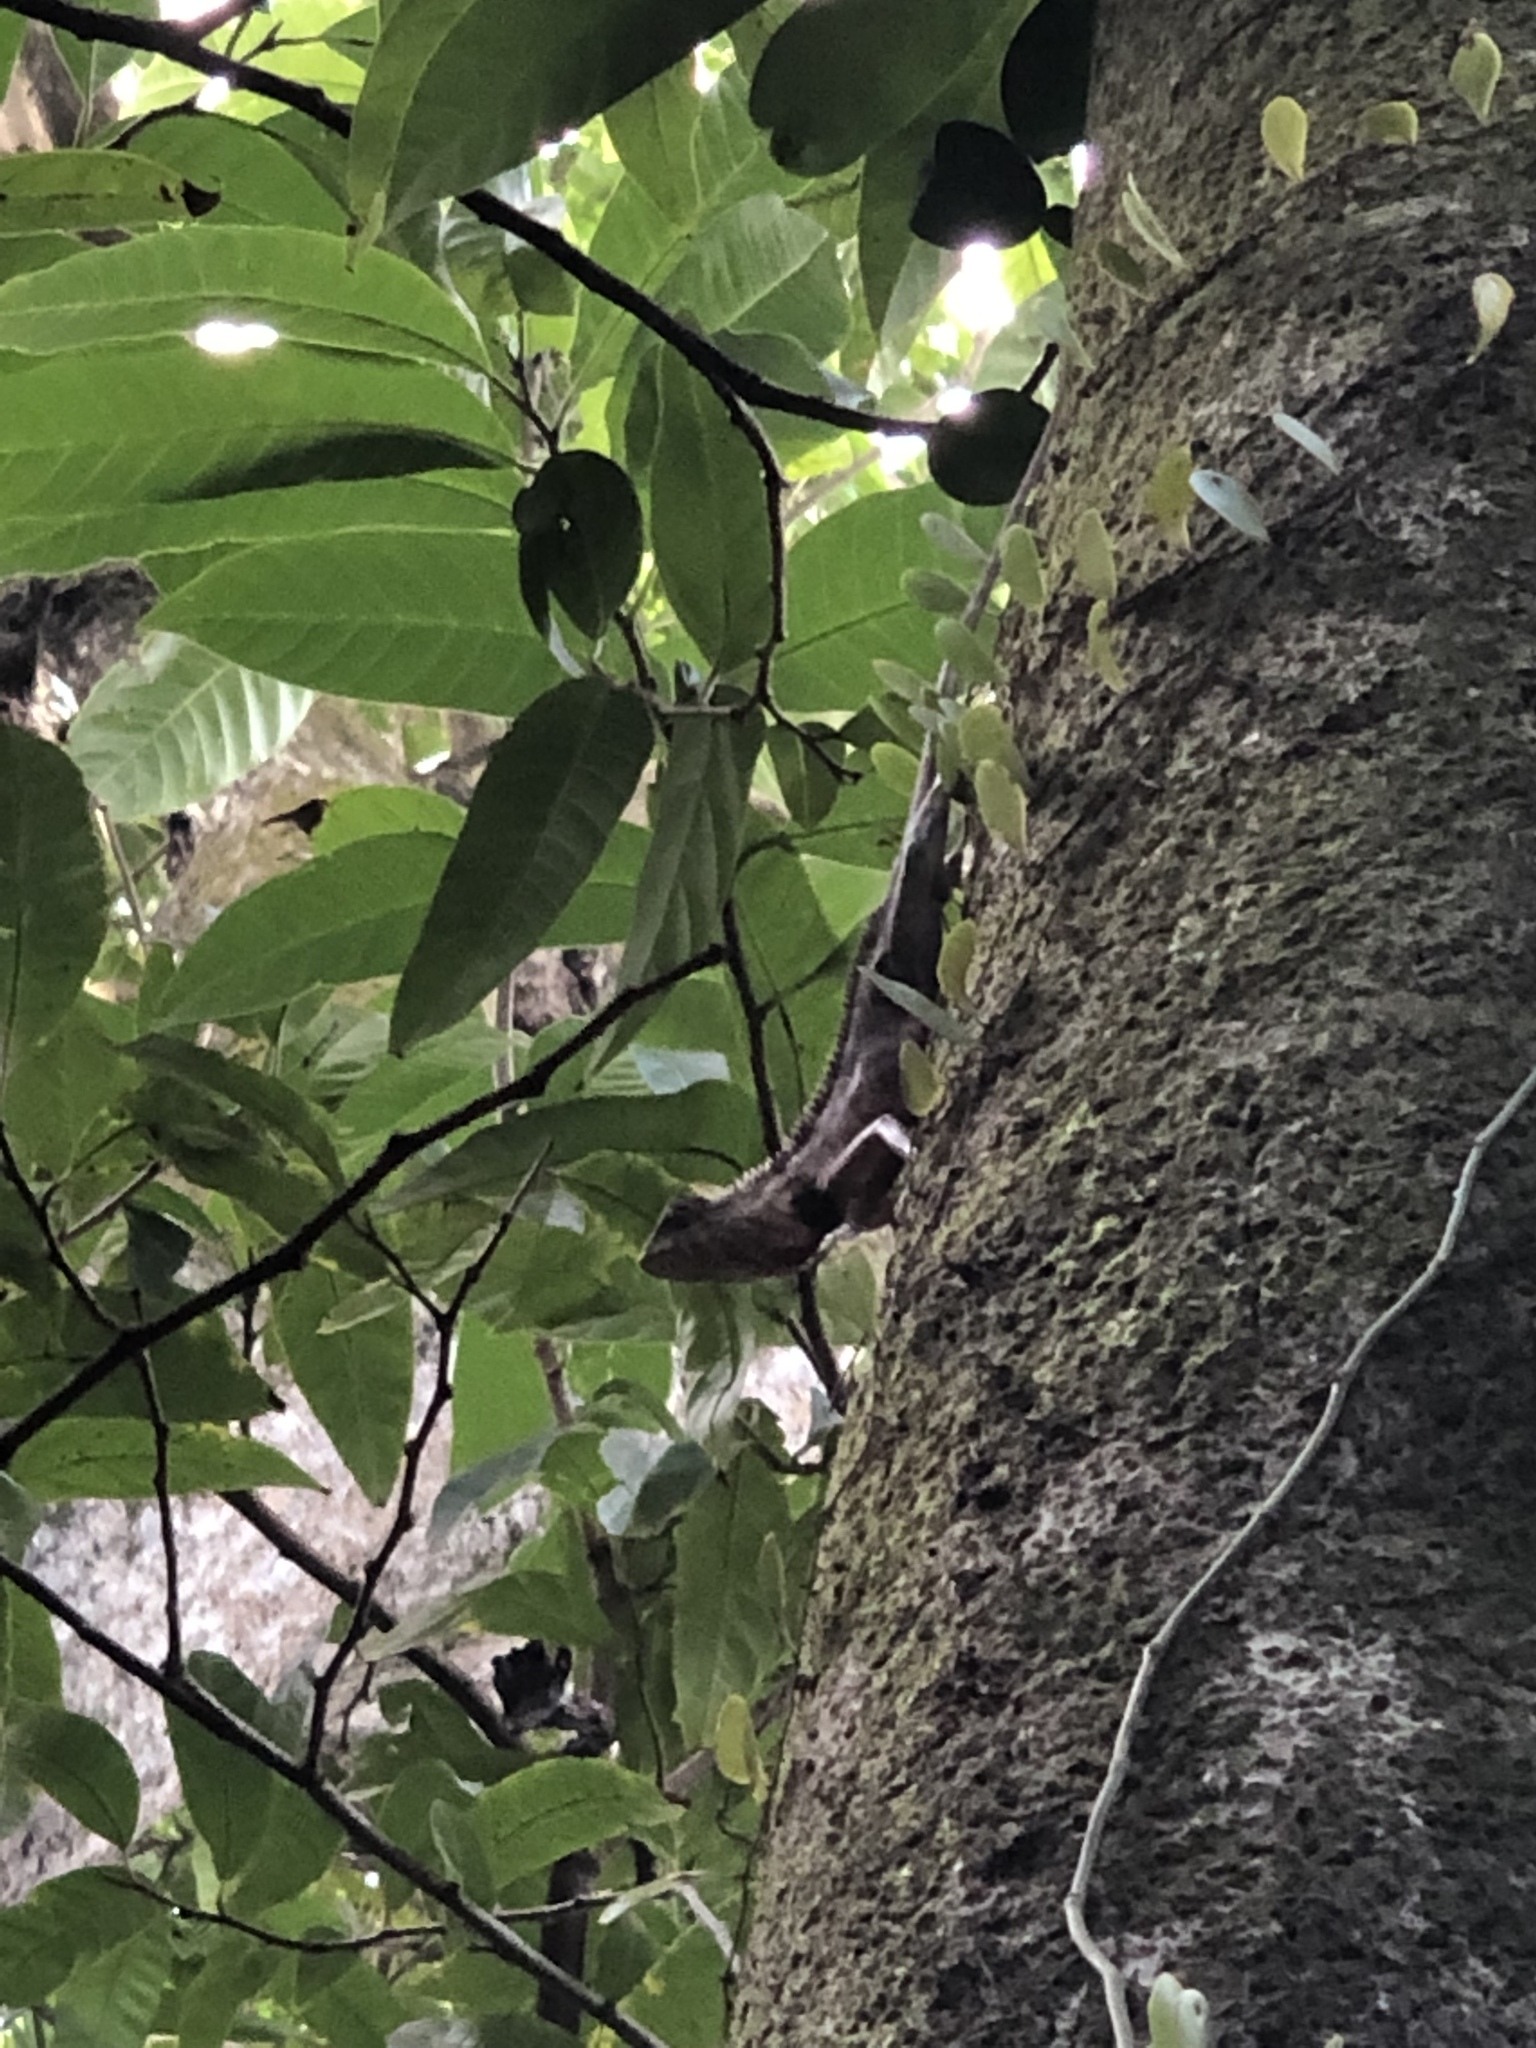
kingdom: Animalia
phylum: Chordata
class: Squamata
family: Agamidae
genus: Calotes
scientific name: Calotes versicolor
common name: Oriental garden lizard
